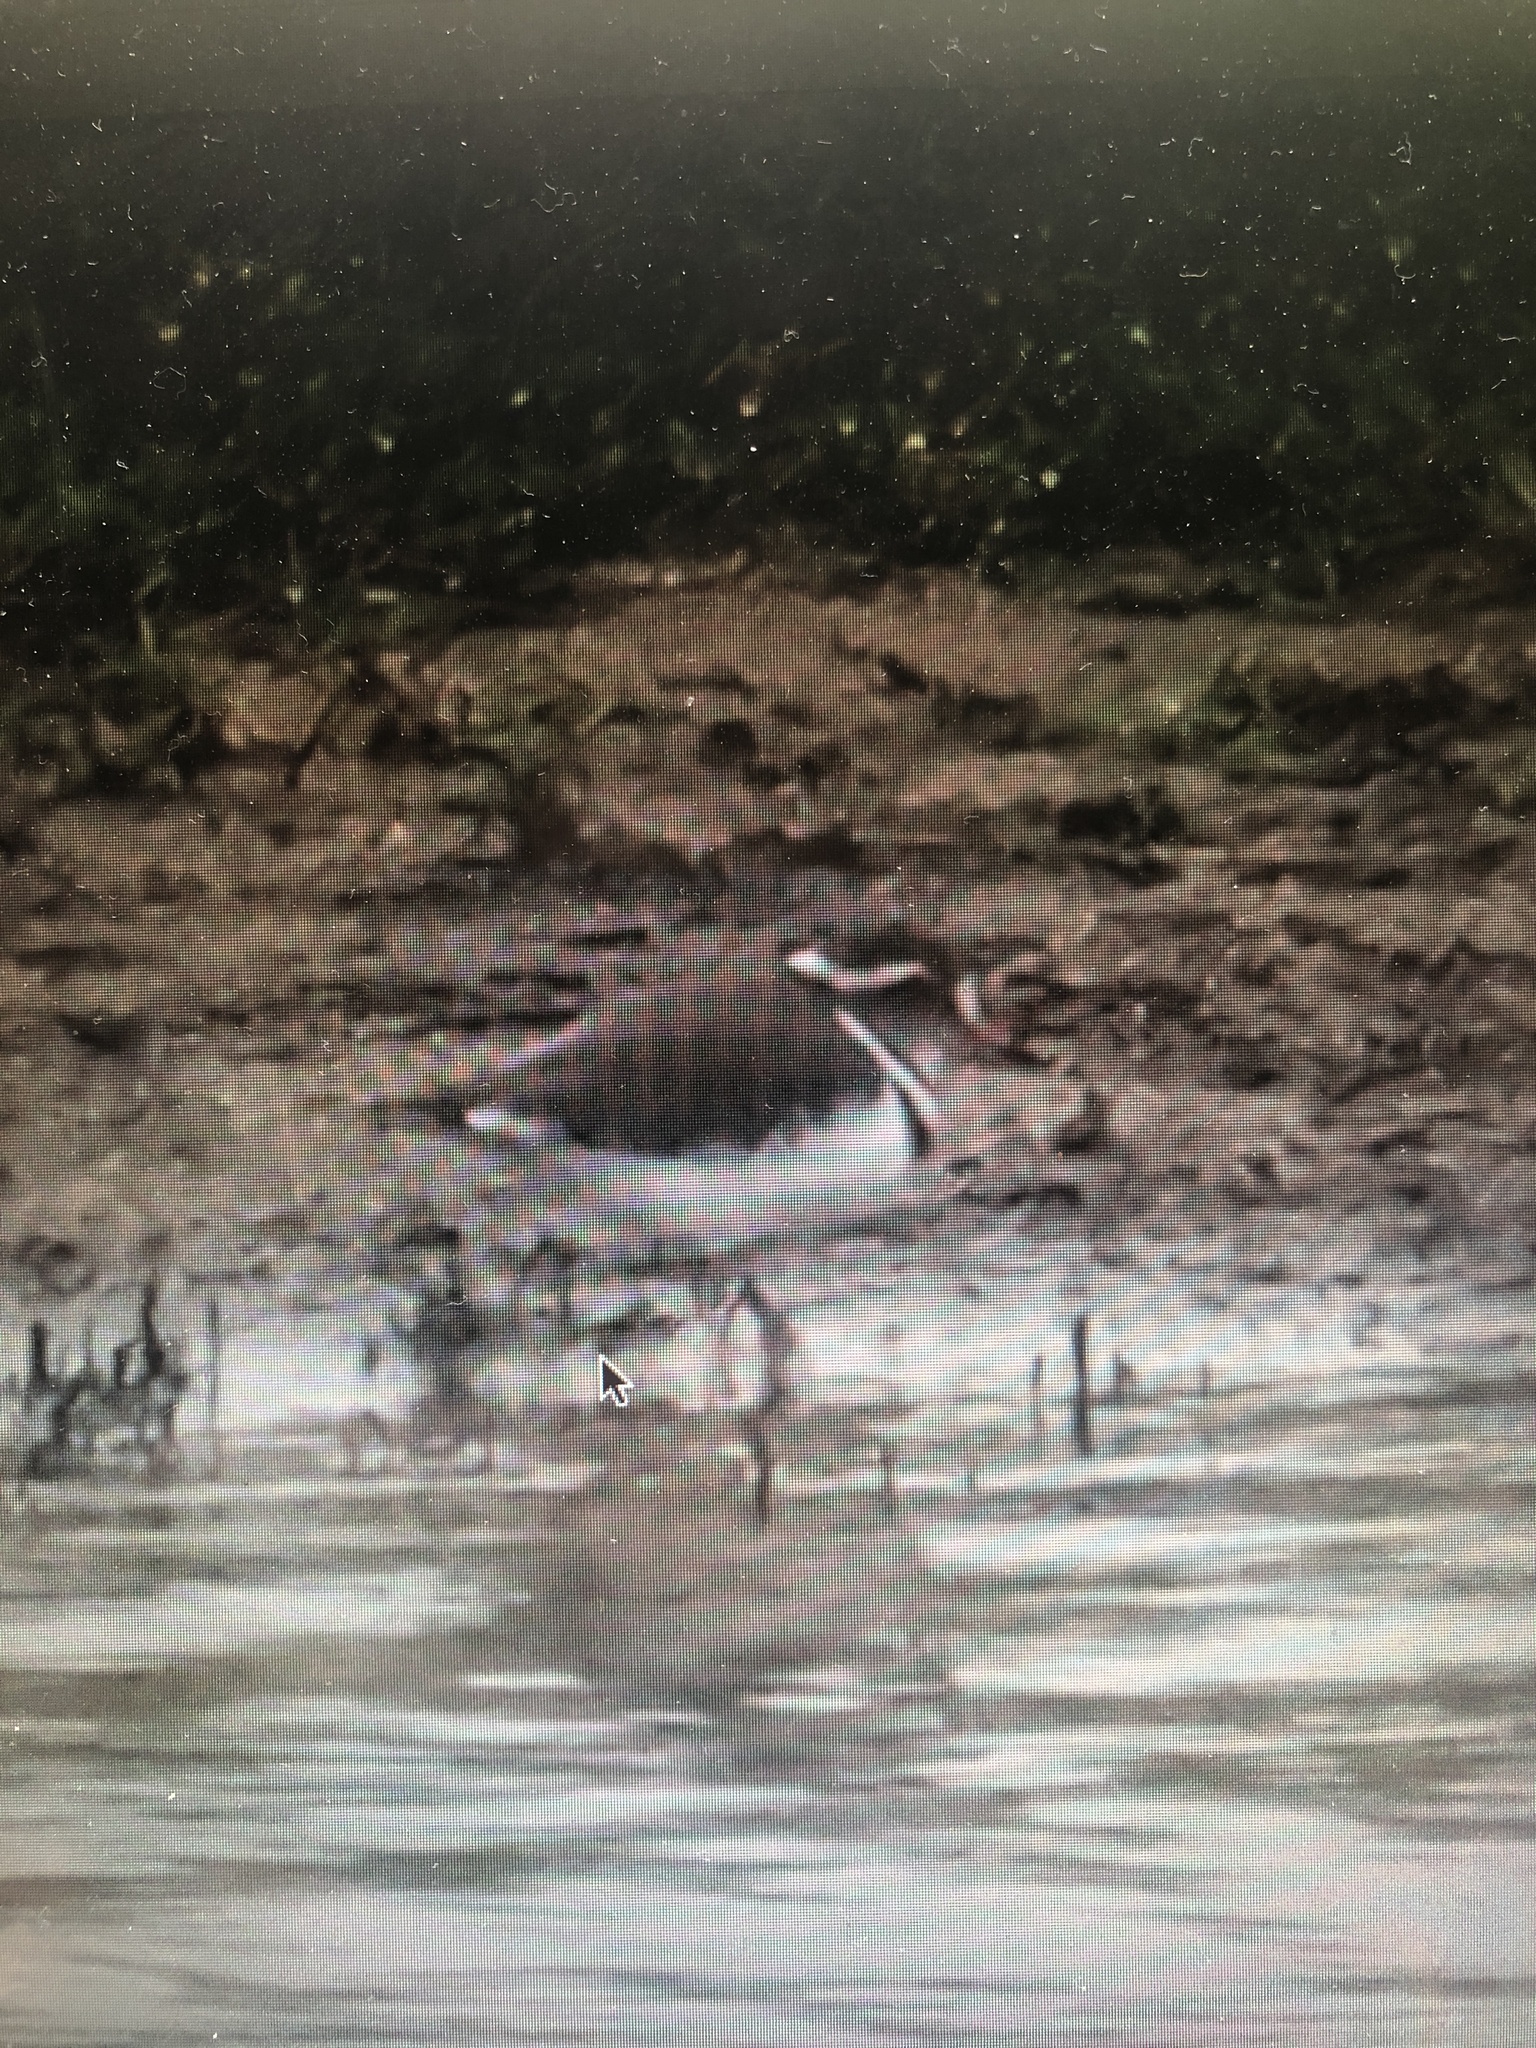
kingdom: Animalia
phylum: Chordata
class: Aves
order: Charadriiformes
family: Charadriidae
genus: Charadrius
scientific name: Charadrius tricollaris
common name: Three-banded plover
